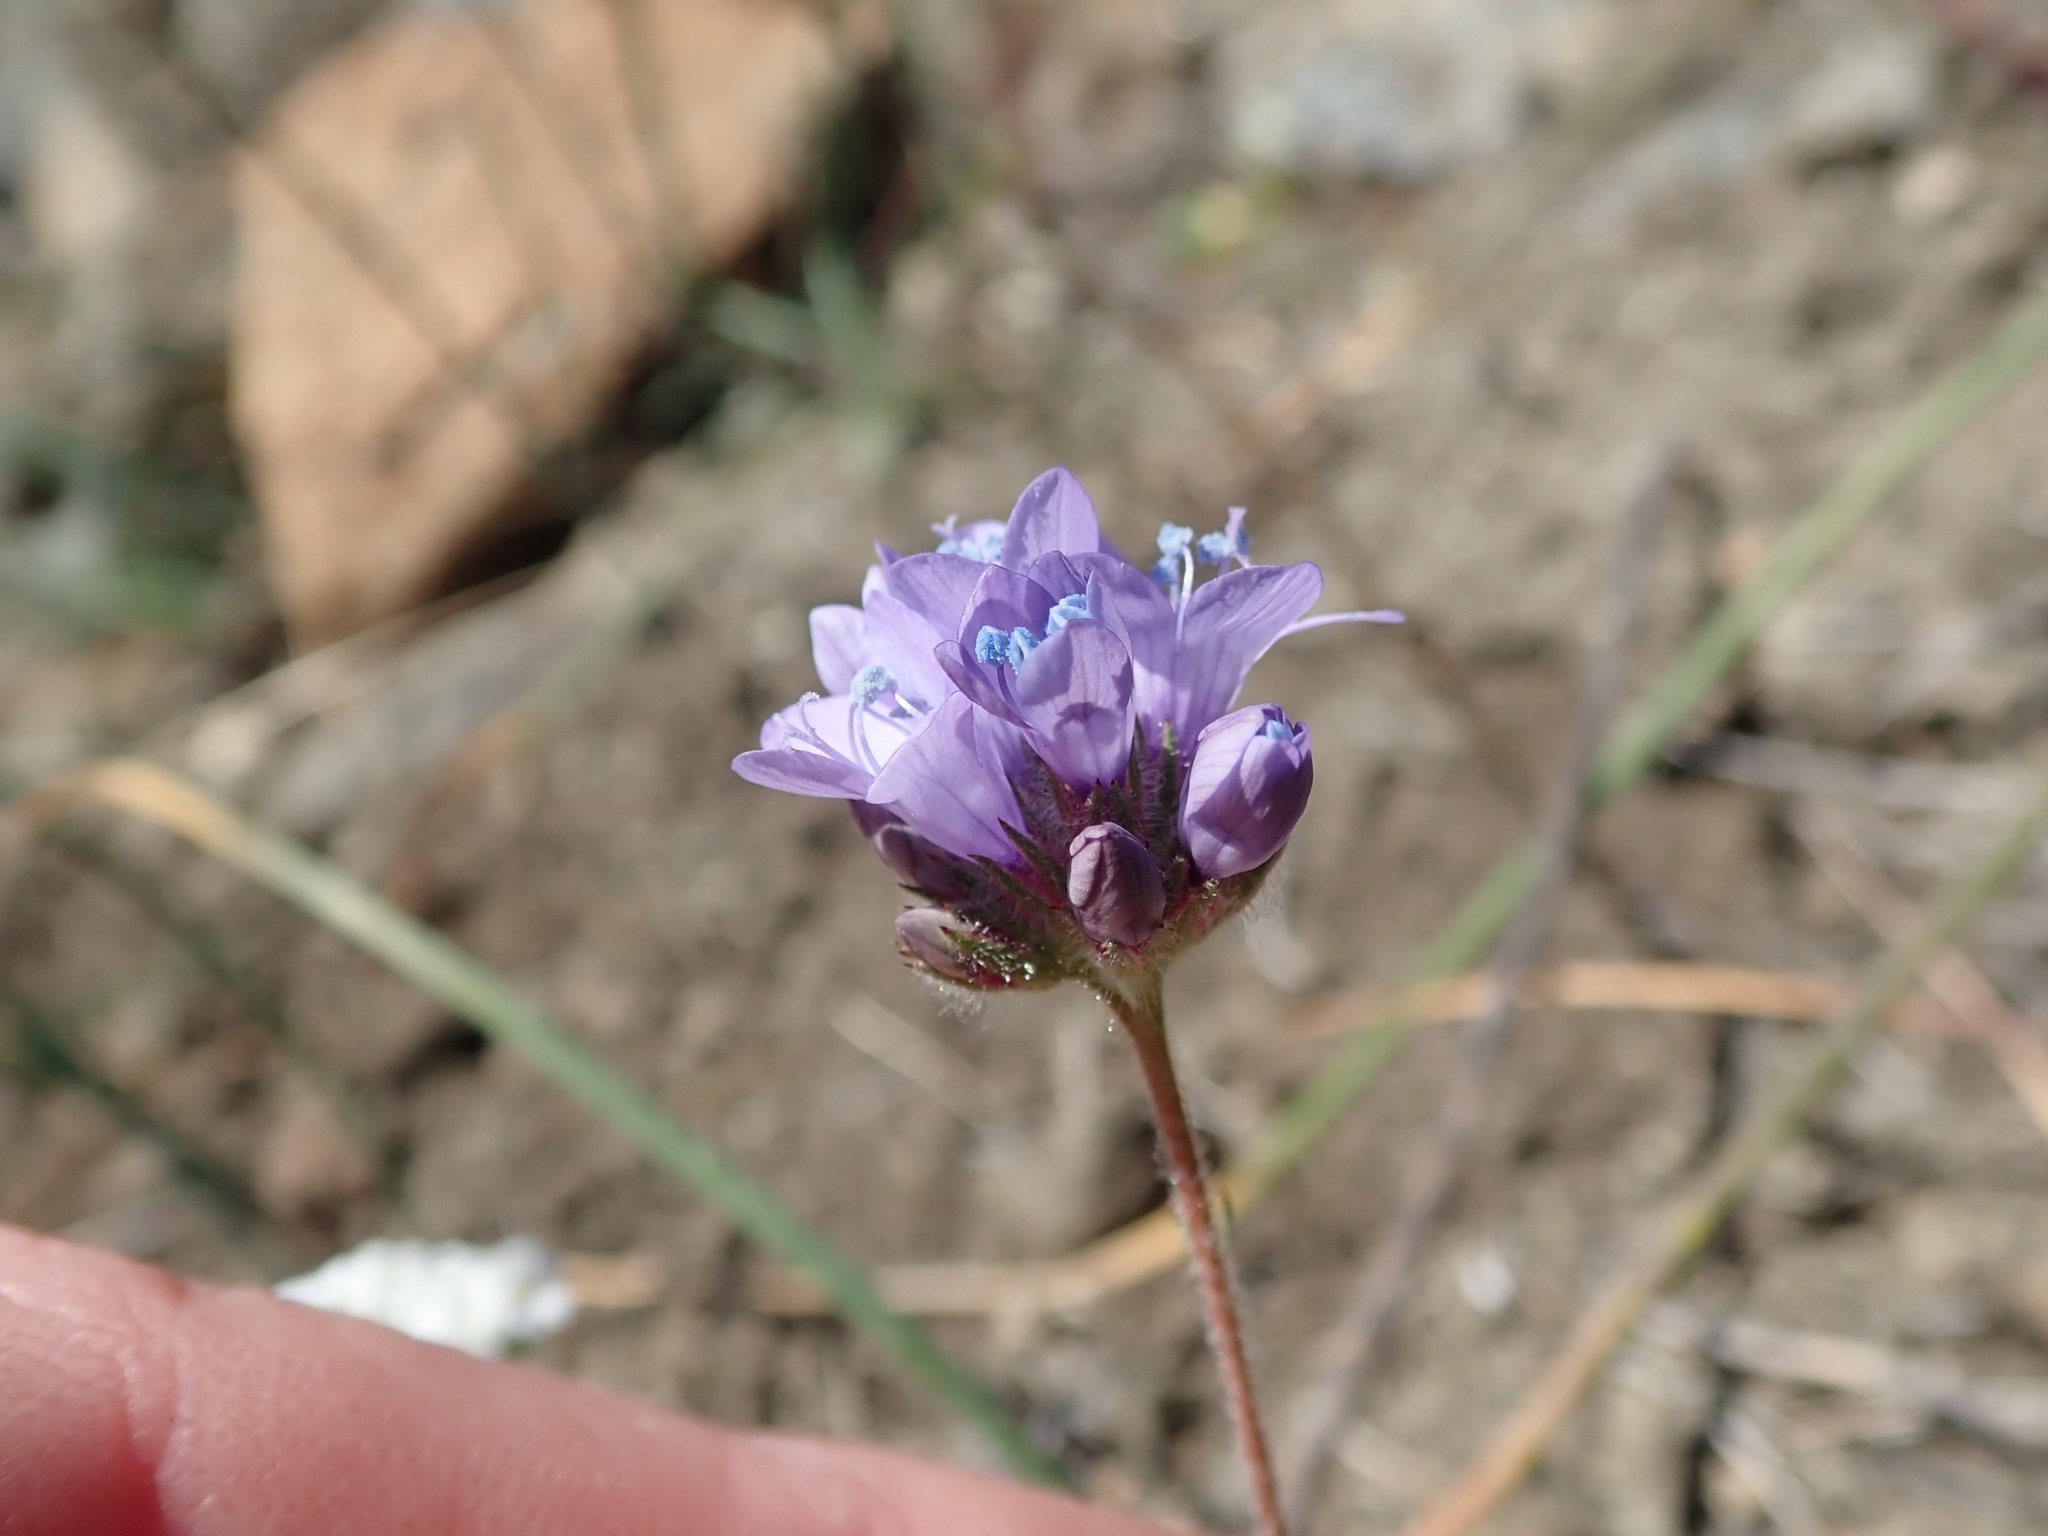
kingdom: Plantae
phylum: Tracheophyta
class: Magnoliopsida
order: Ericales
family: Polemoniaceae
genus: Gilia
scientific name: Gilia achilleifolia
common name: California gily-flower
